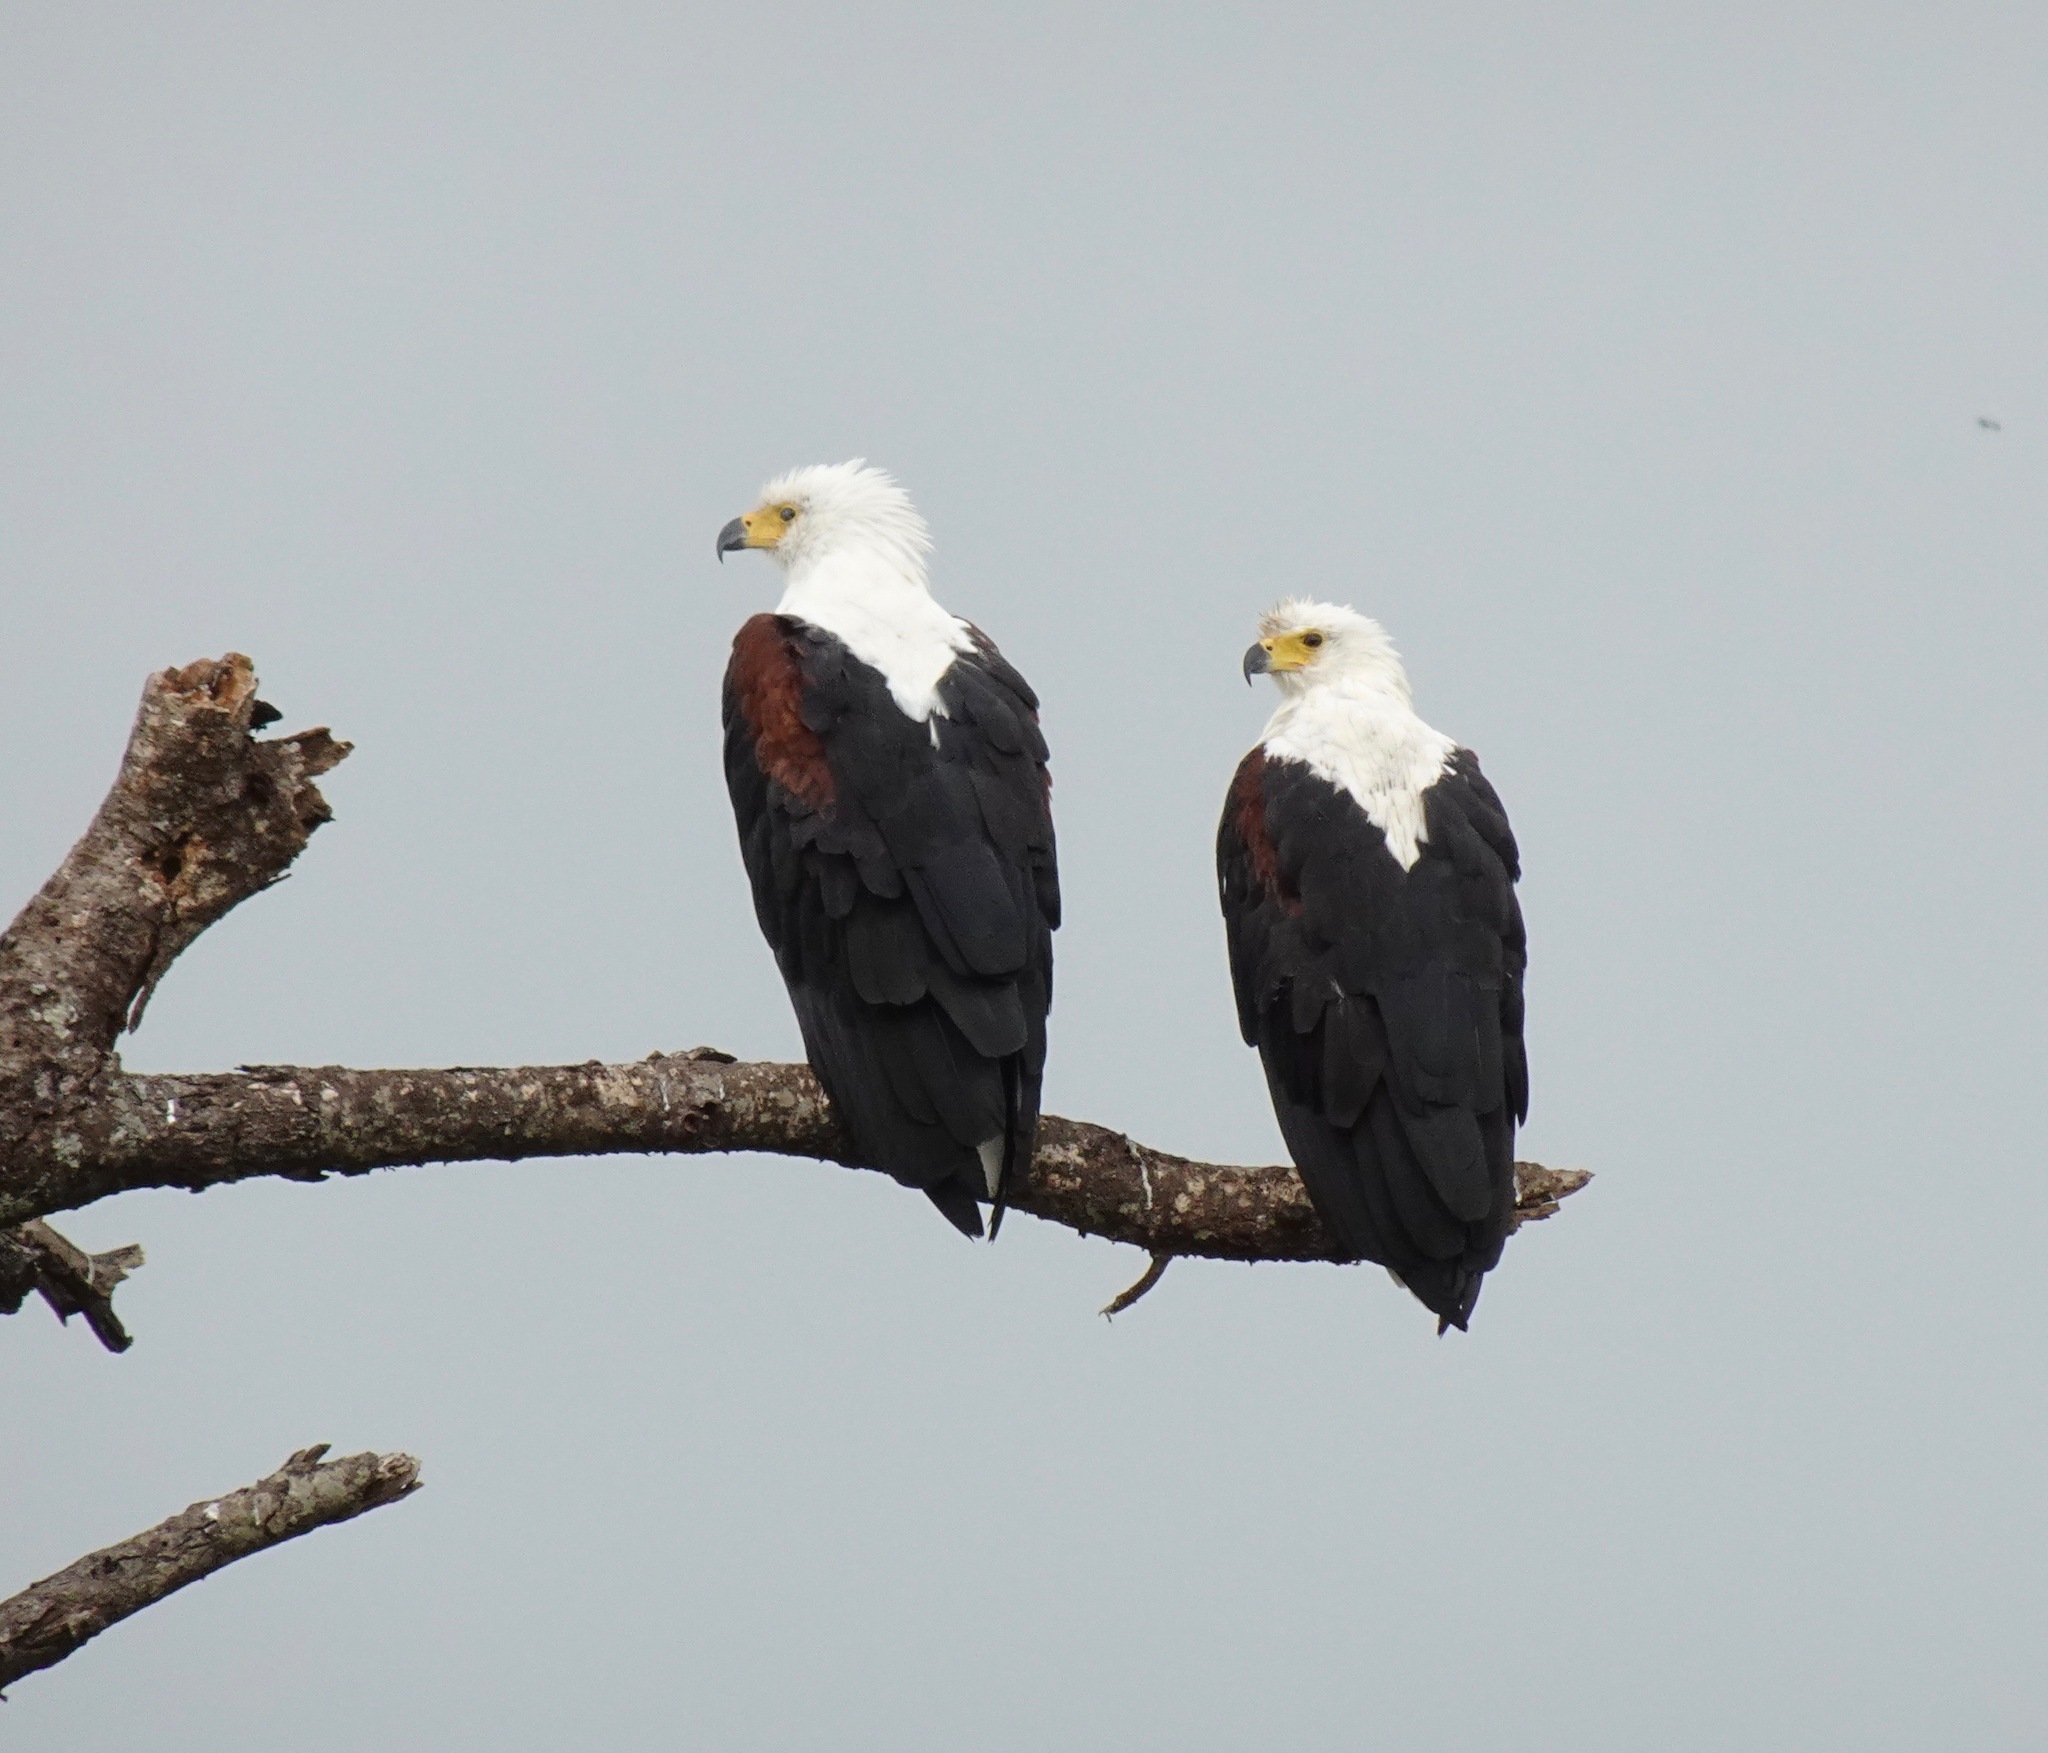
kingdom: Animalia
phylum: Chordata
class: Aves
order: Accipitriformes
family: Accipitridae
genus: Haliaeetus
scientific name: Haliaeetus vocifer
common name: African fish eagle
